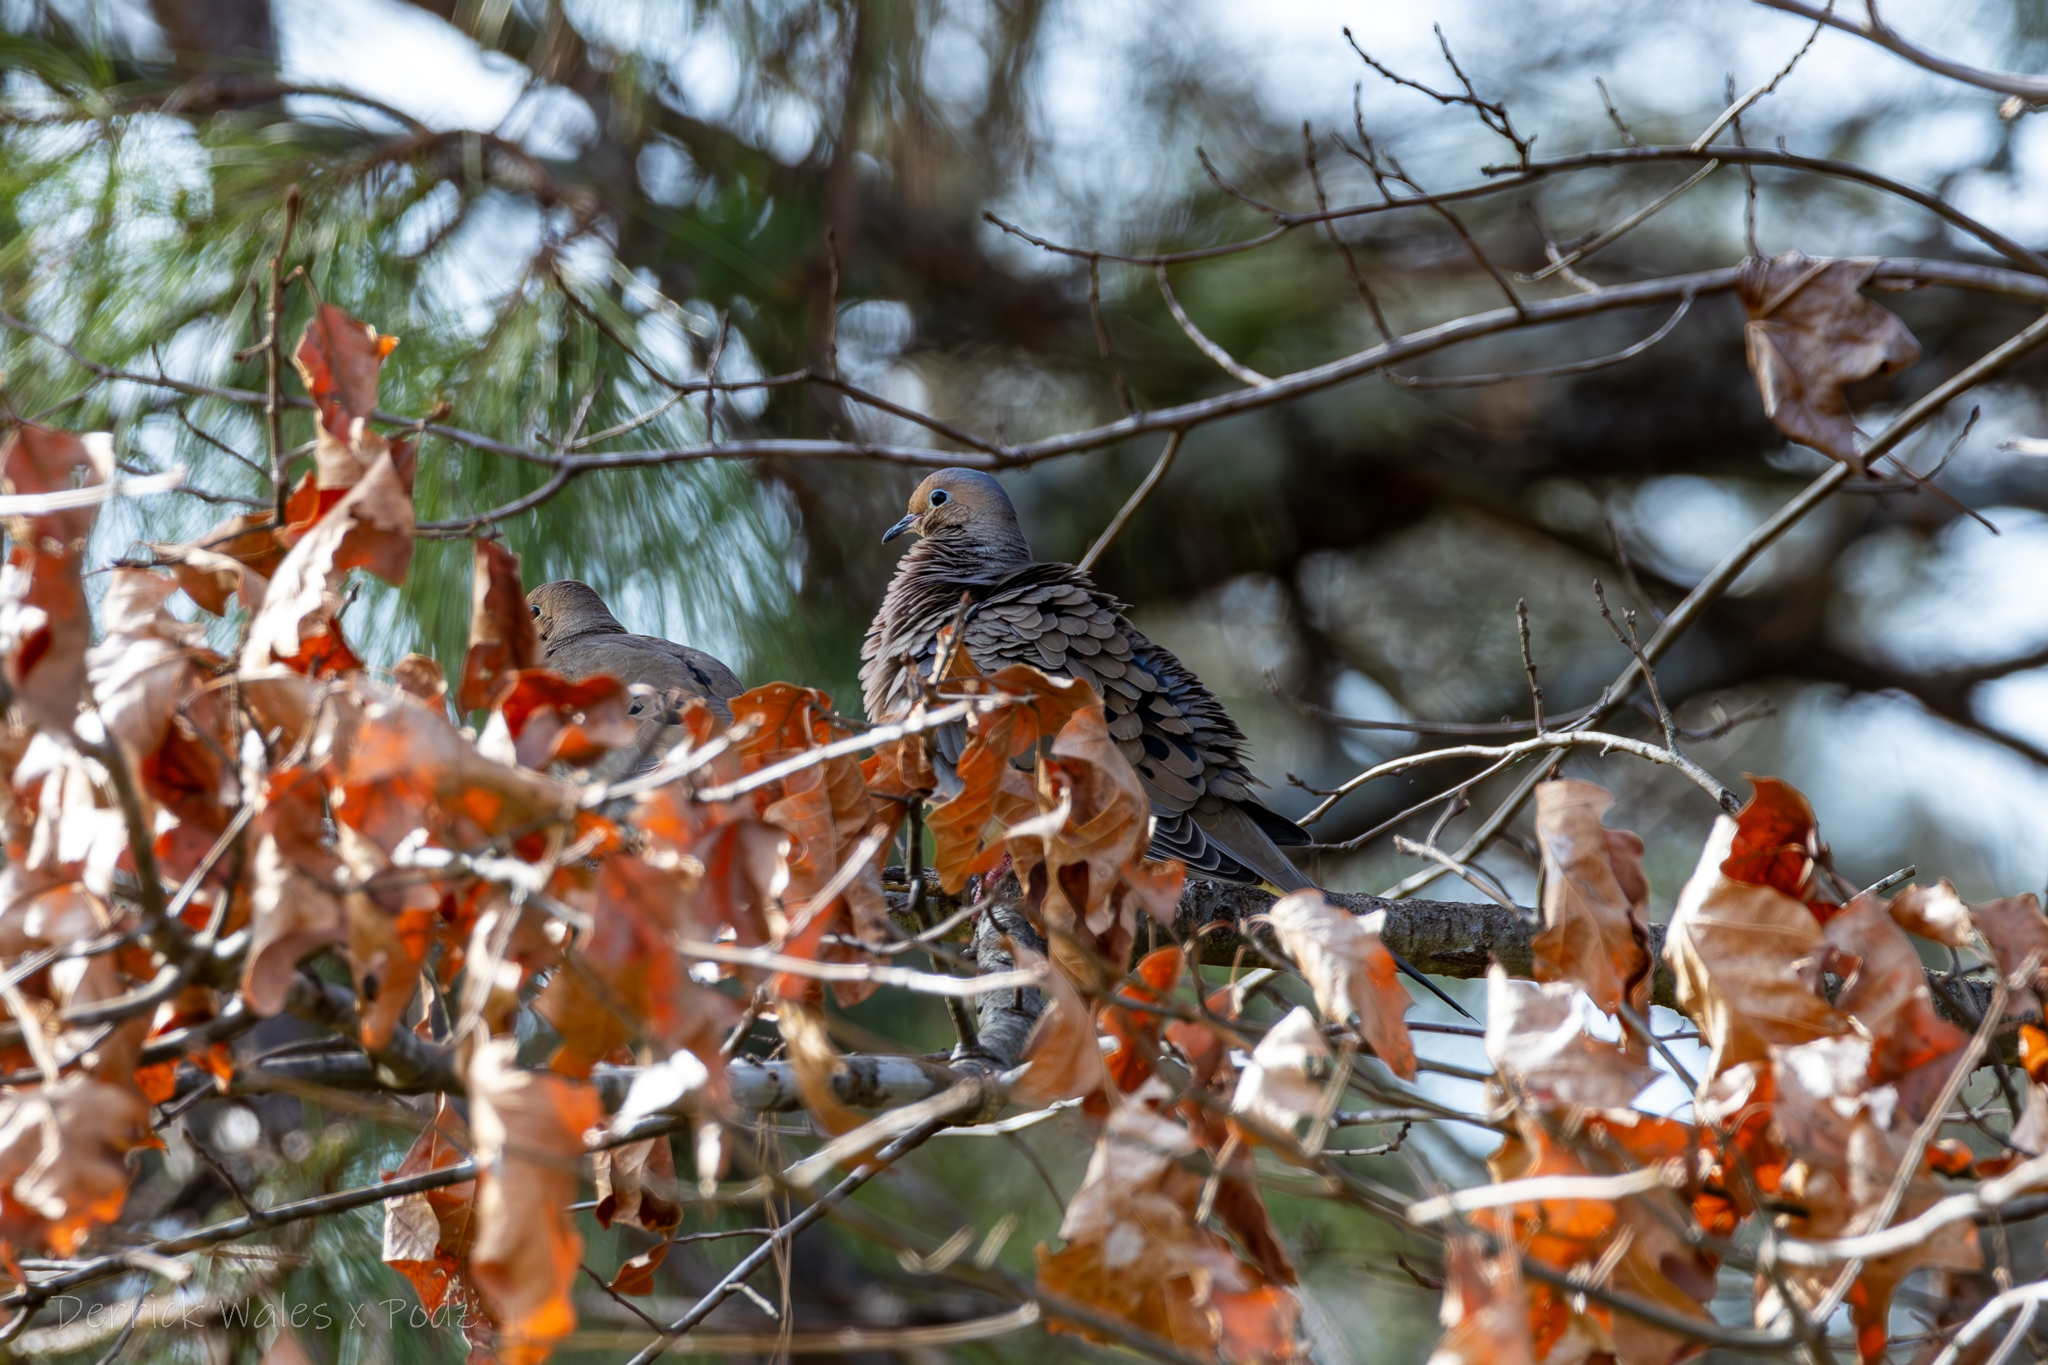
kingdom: Animalia
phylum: Chordata
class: Aves
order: Columbiformes
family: Columbidae
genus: Zenaida
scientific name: Zenaida macroura
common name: Mourning dove
